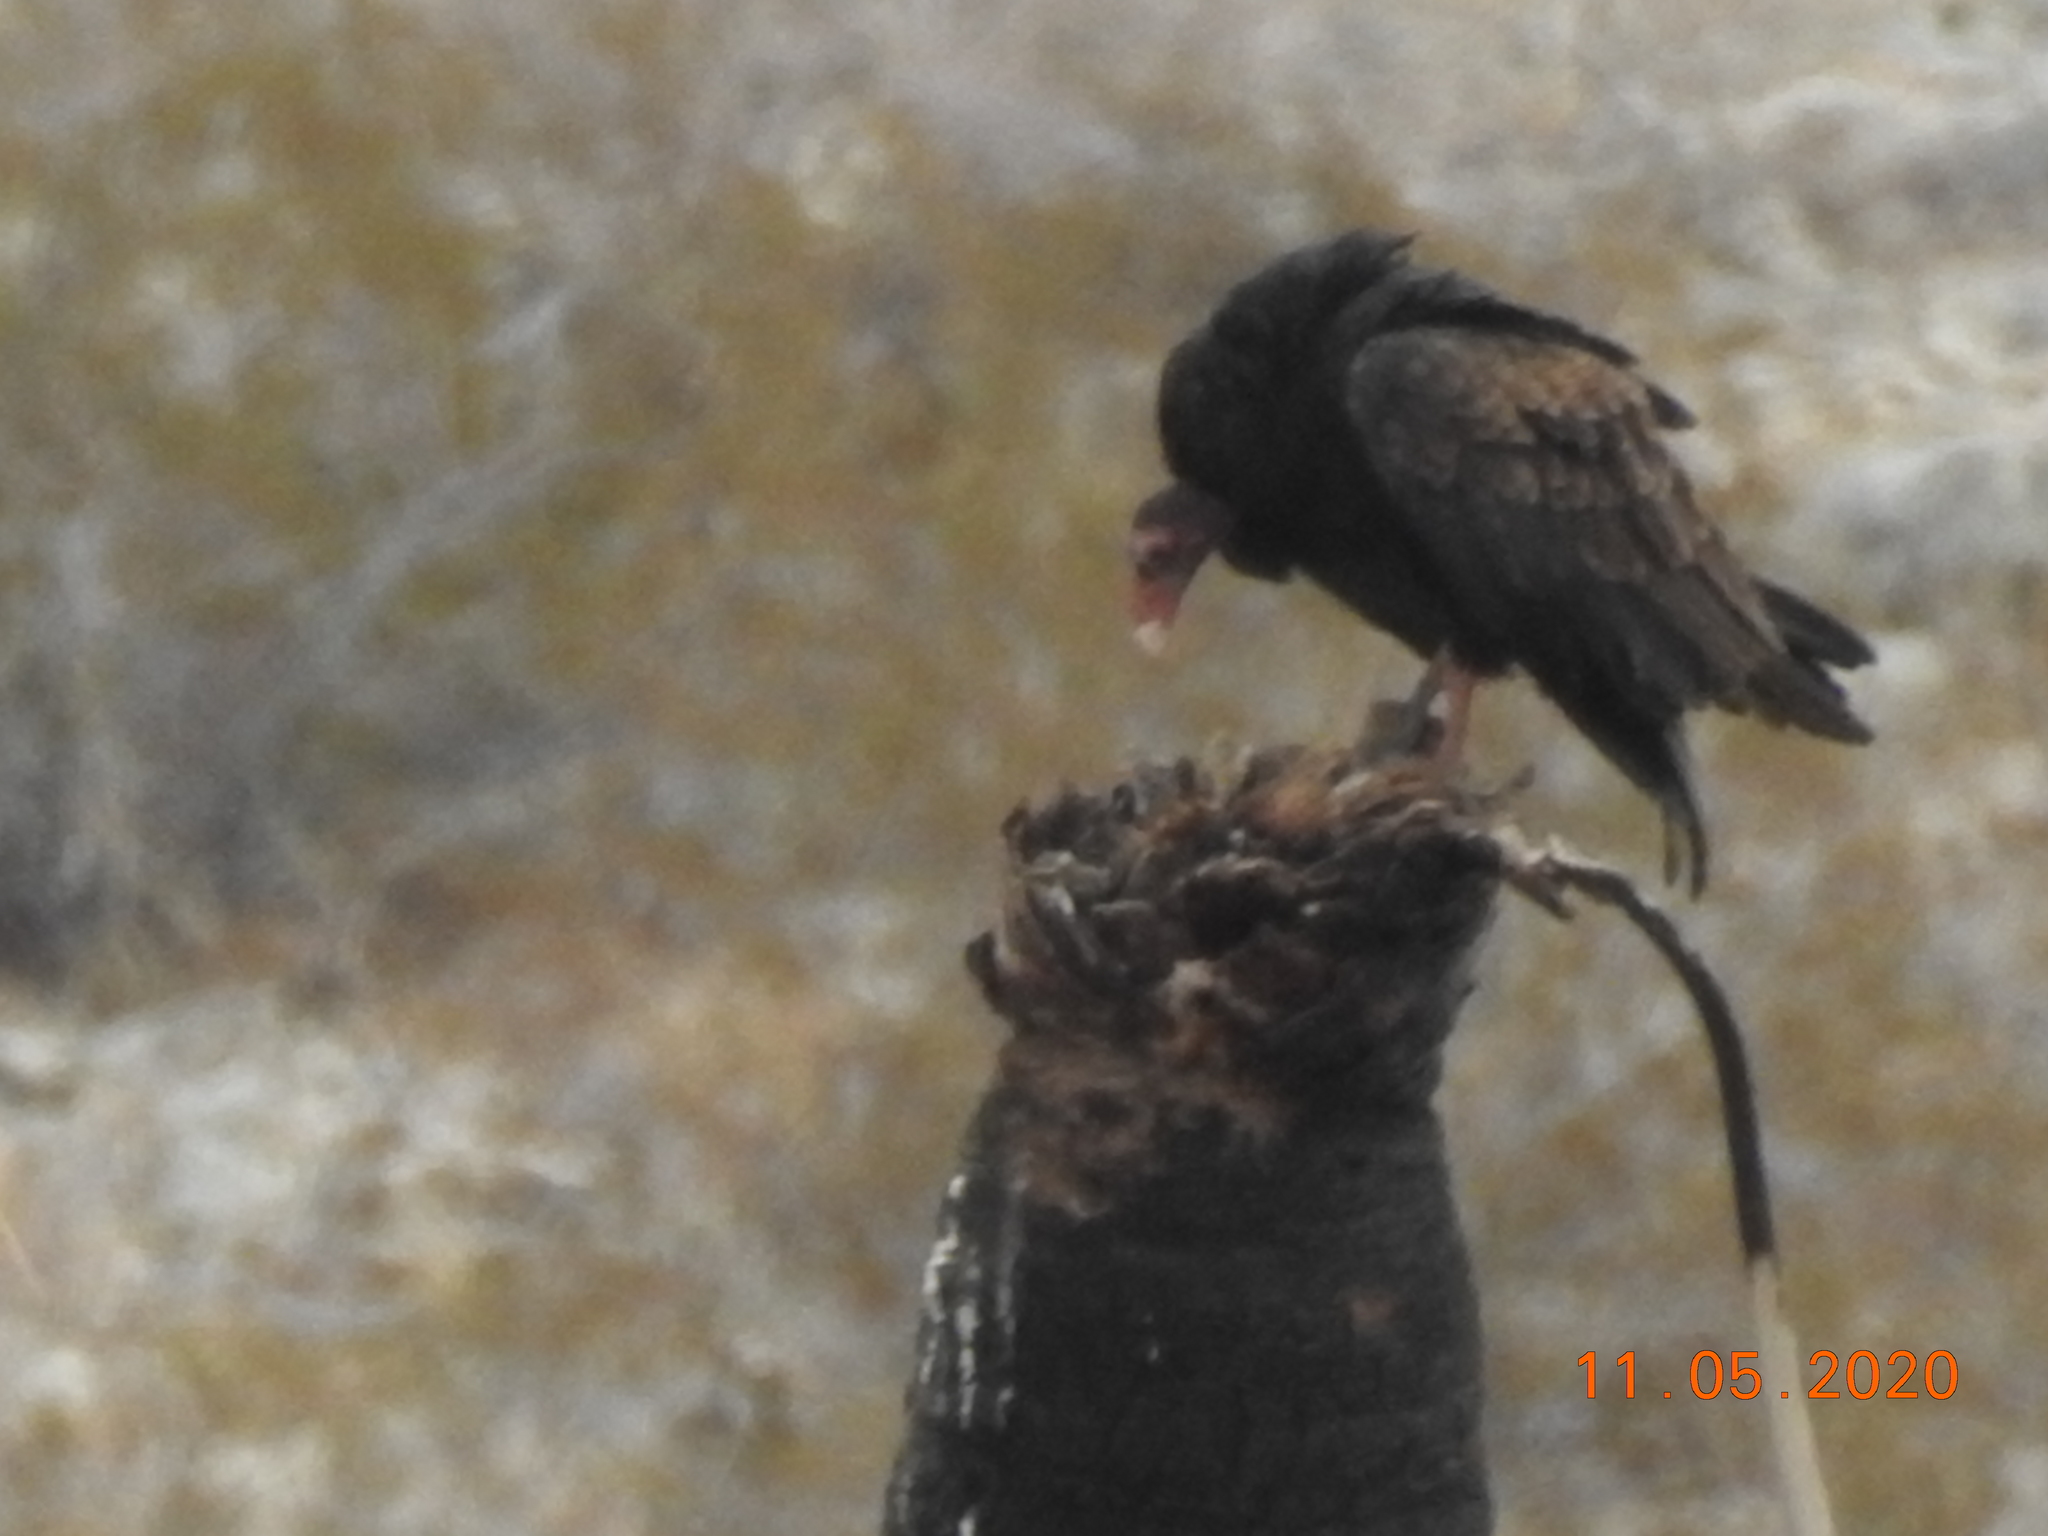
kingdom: Animalia
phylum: Chordata
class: Aves
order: Accipitriformes
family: Cathartidae
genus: Cathartes
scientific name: Cathartes aura
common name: Turkey vulture
